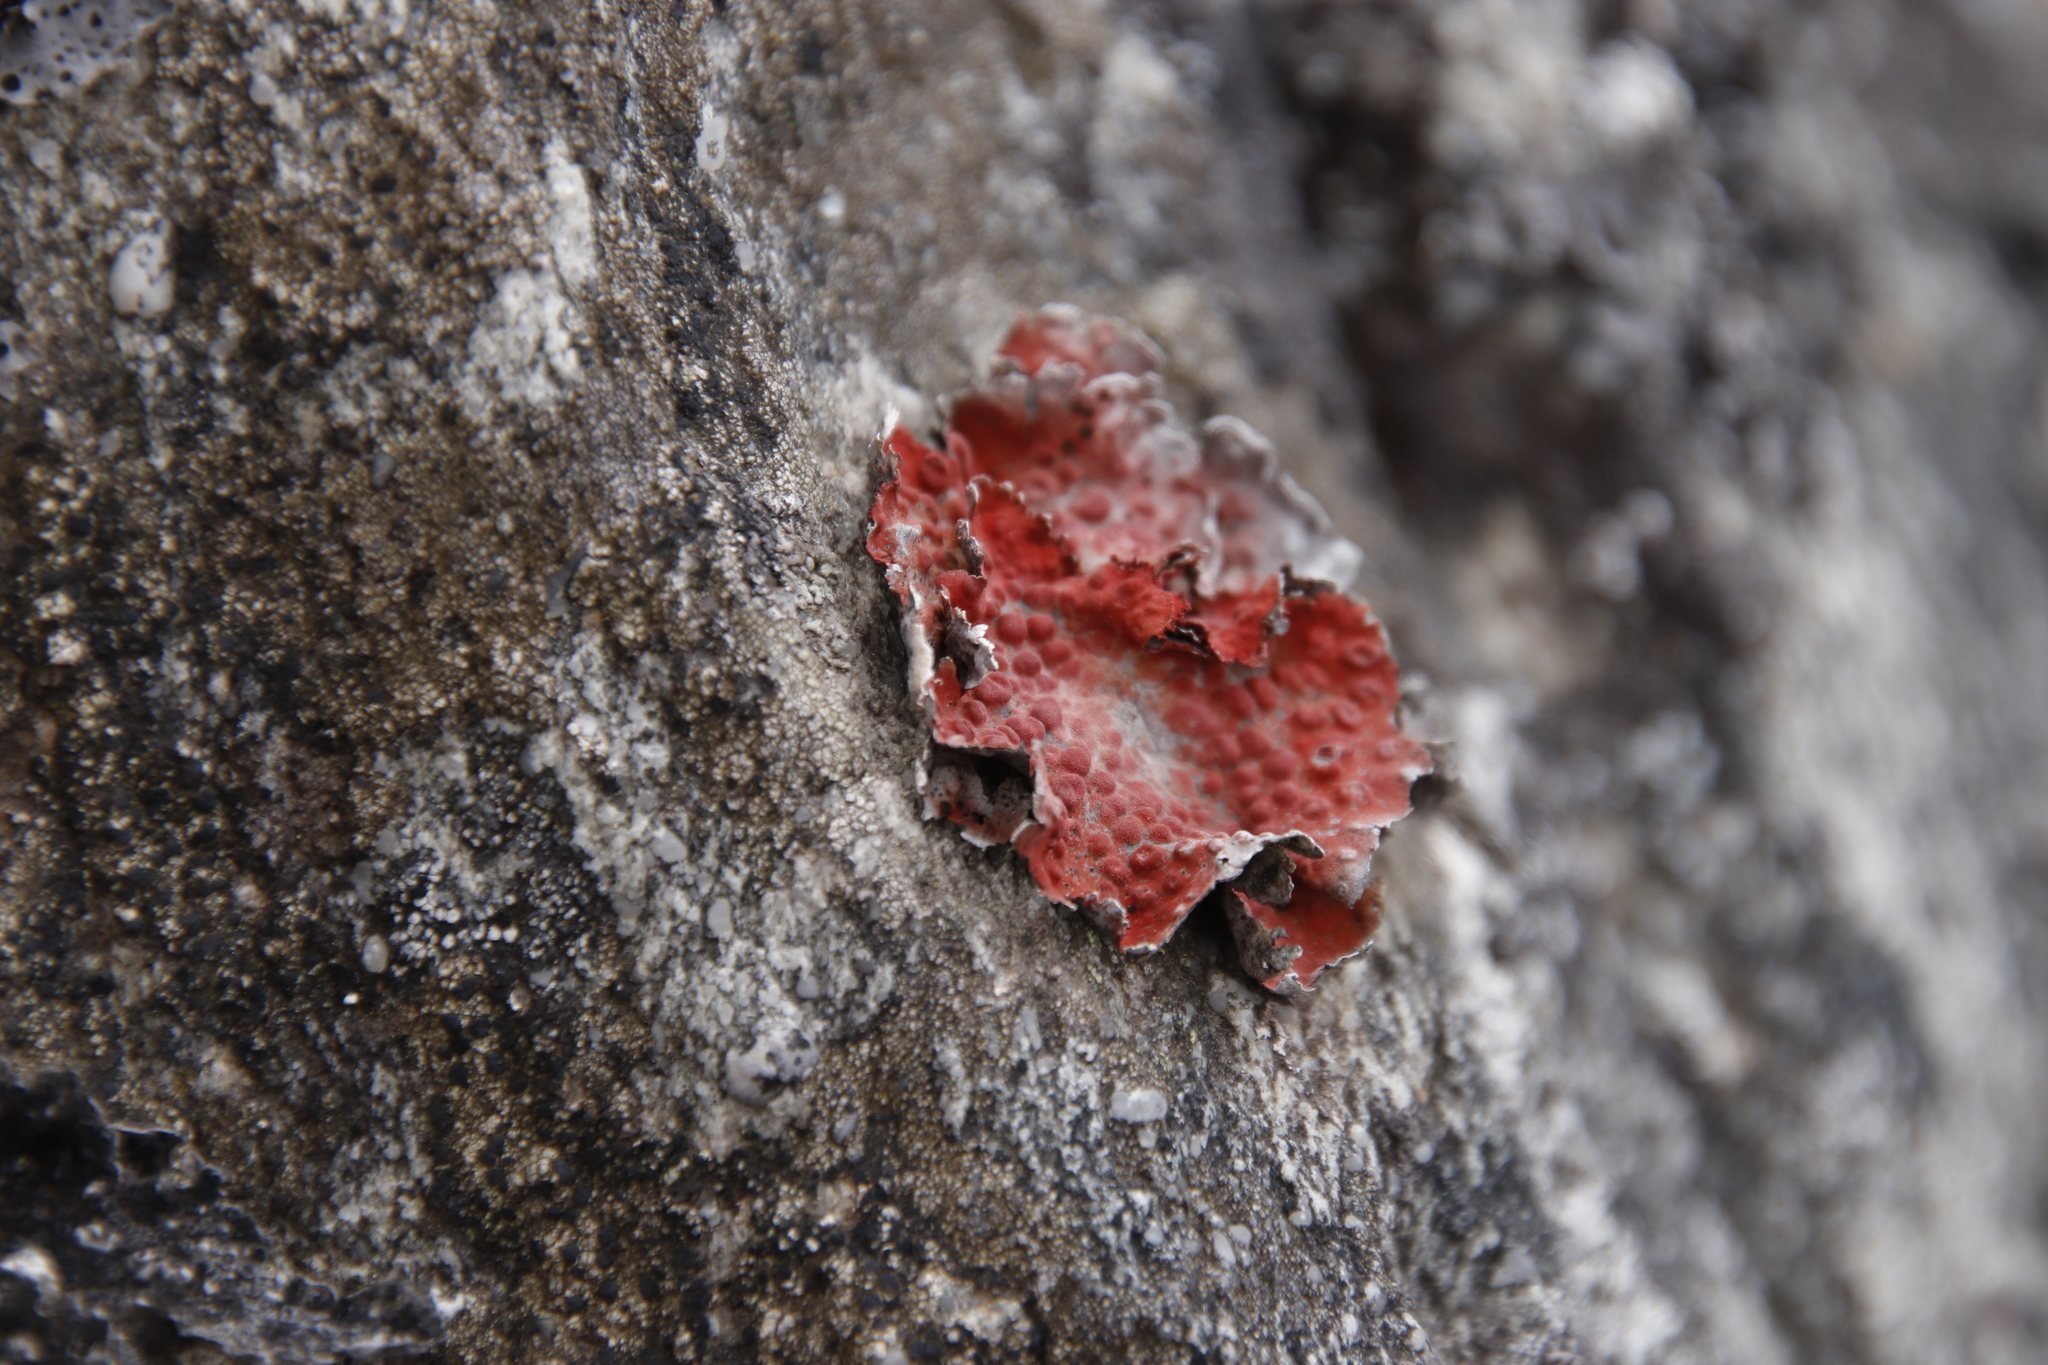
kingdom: Fungi
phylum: Ascomycota
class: Lecanoromycetes
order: Umbilicariales
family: Umbilicariaceae
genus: Lasallia
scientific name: Lasallia rubiginosa
